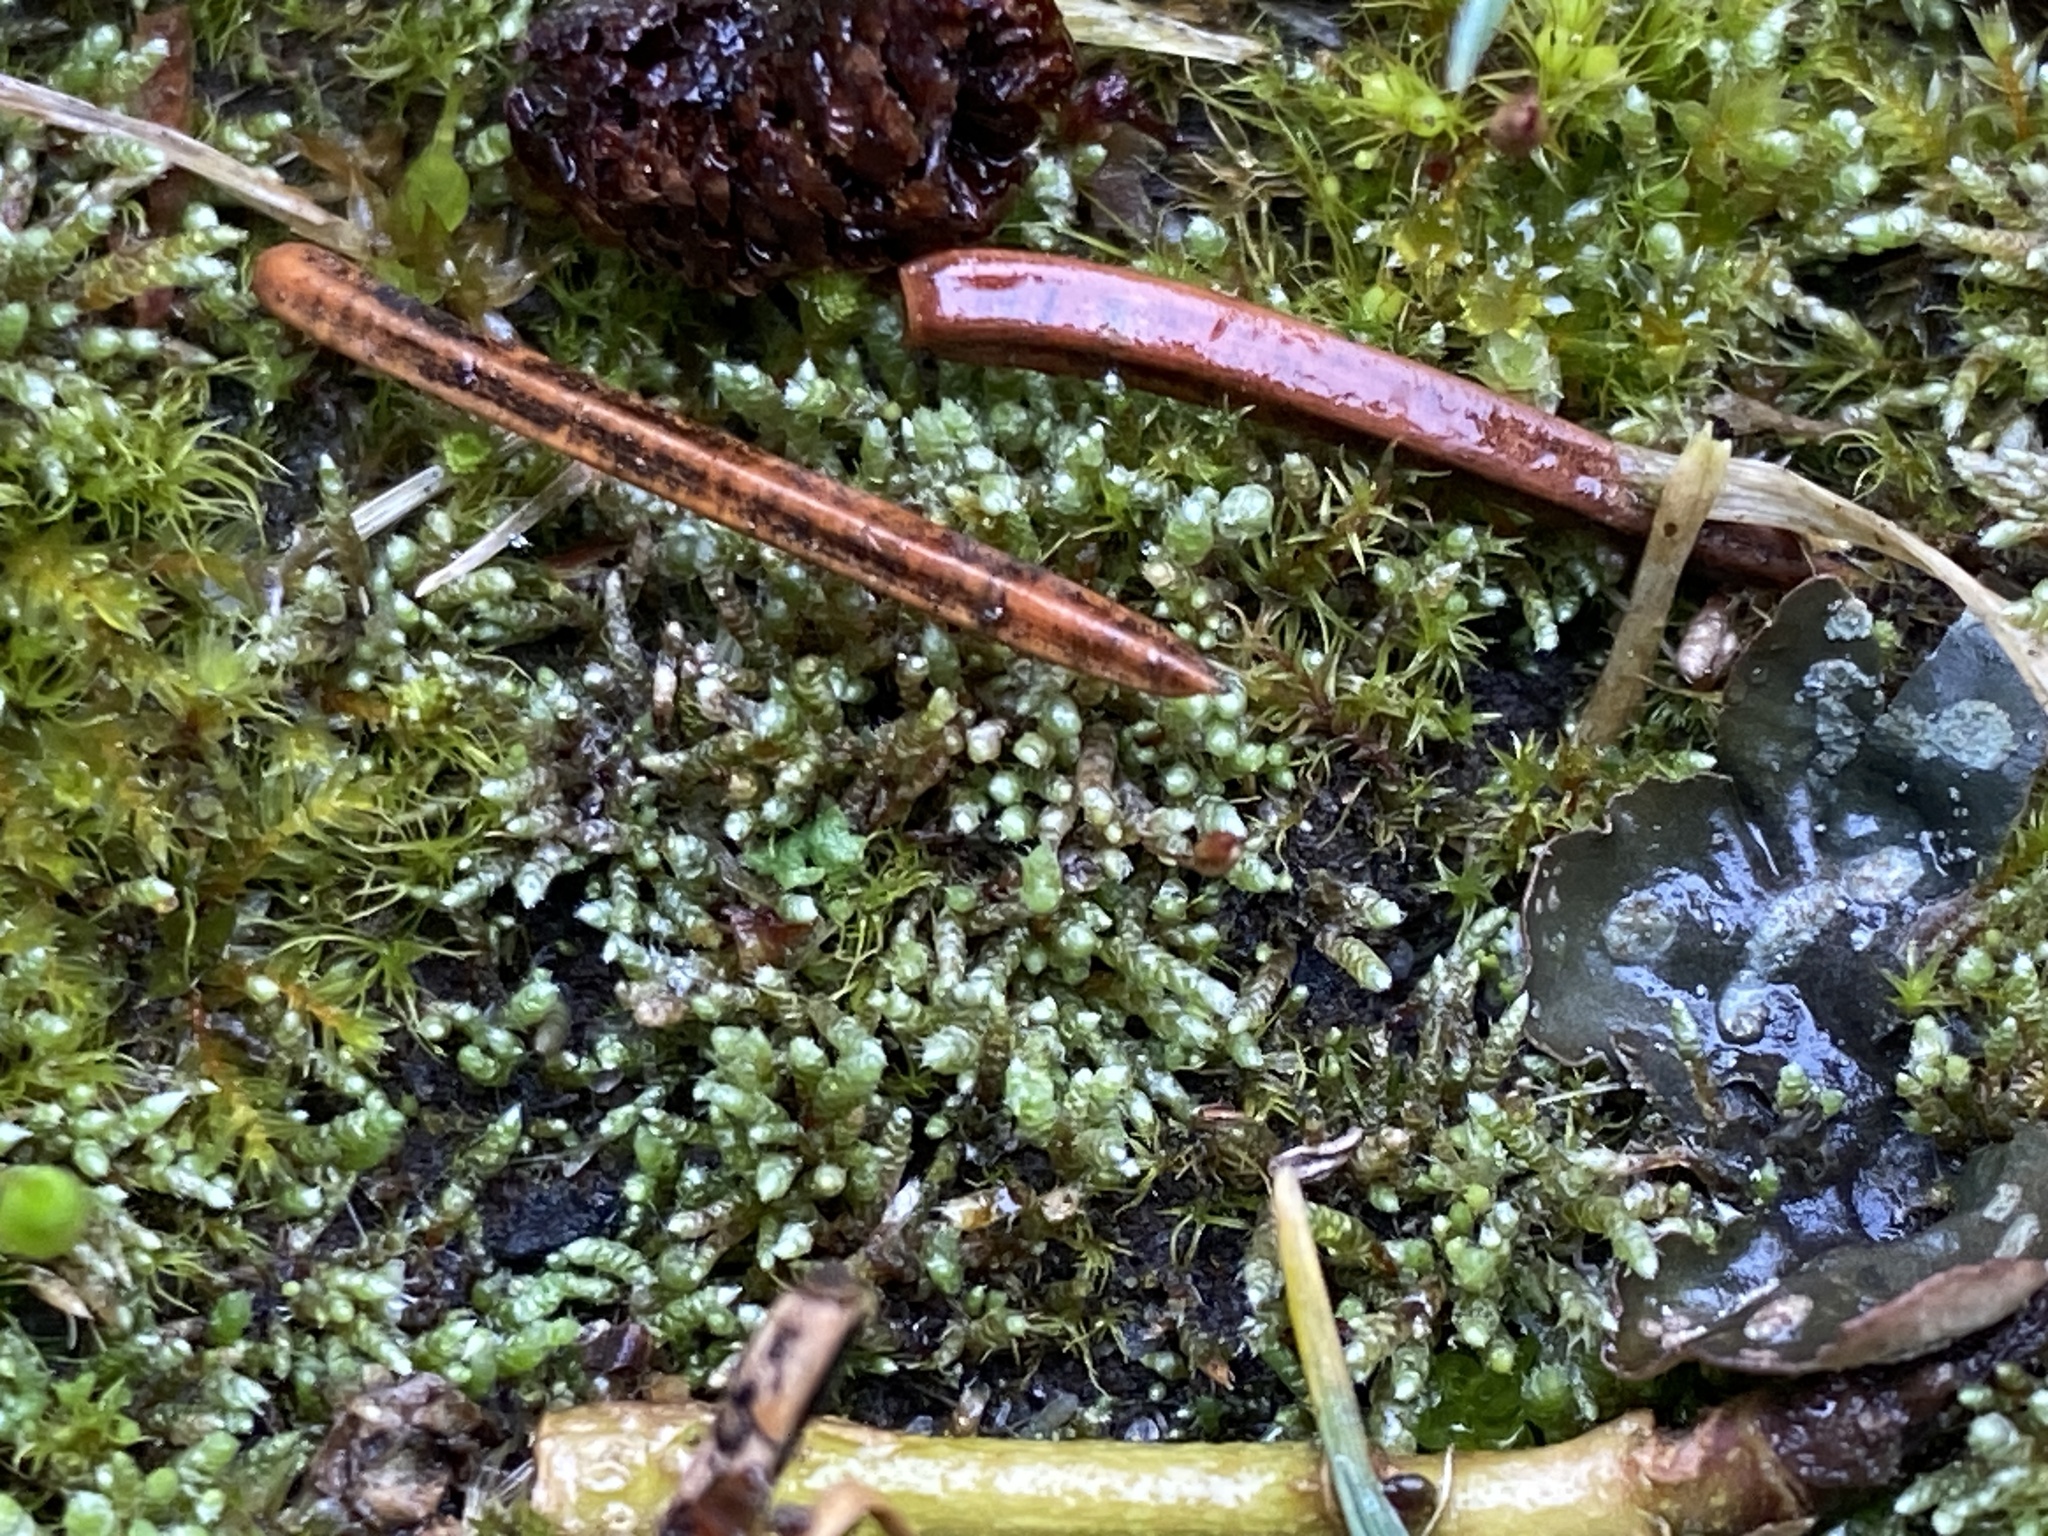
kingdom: Plantae
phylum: Bryophyta
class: Bryopsida
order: Bryales
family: Bryaceae
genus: Bryum
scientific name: Bryum argenteum
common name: Silver-moss
